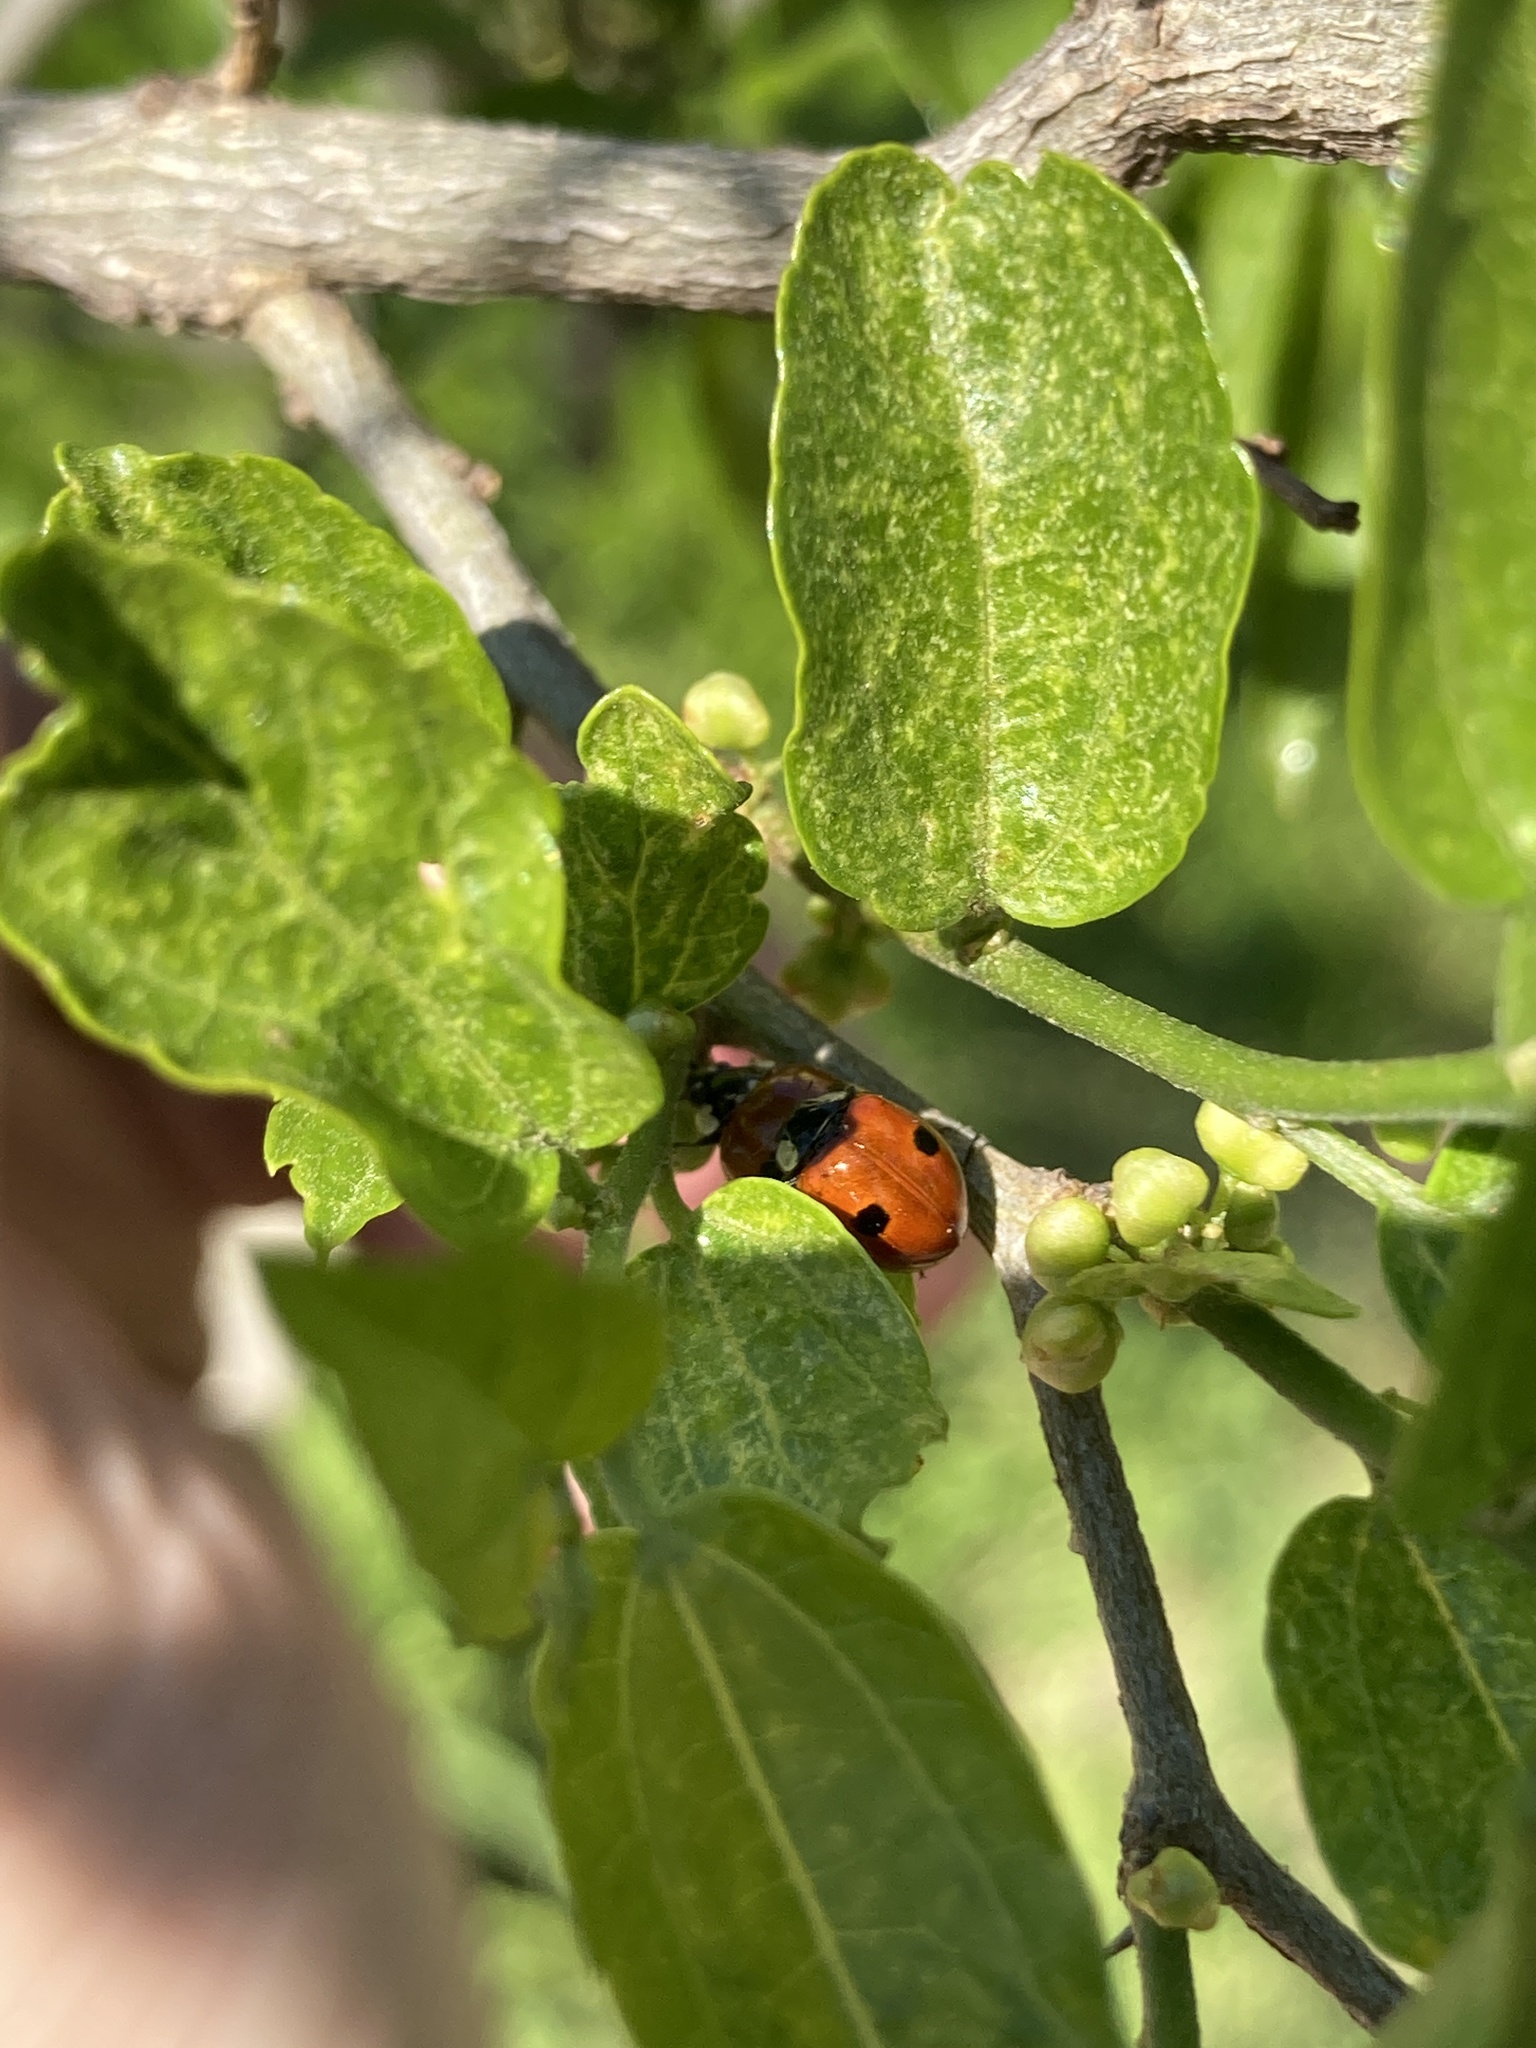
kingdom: Animalia
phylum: Arthropoda
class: Insecta
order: Coleoptera
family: Coccinellidae
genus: Adalia
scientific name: Adalia bipunctata
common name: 2-spot ladybird
